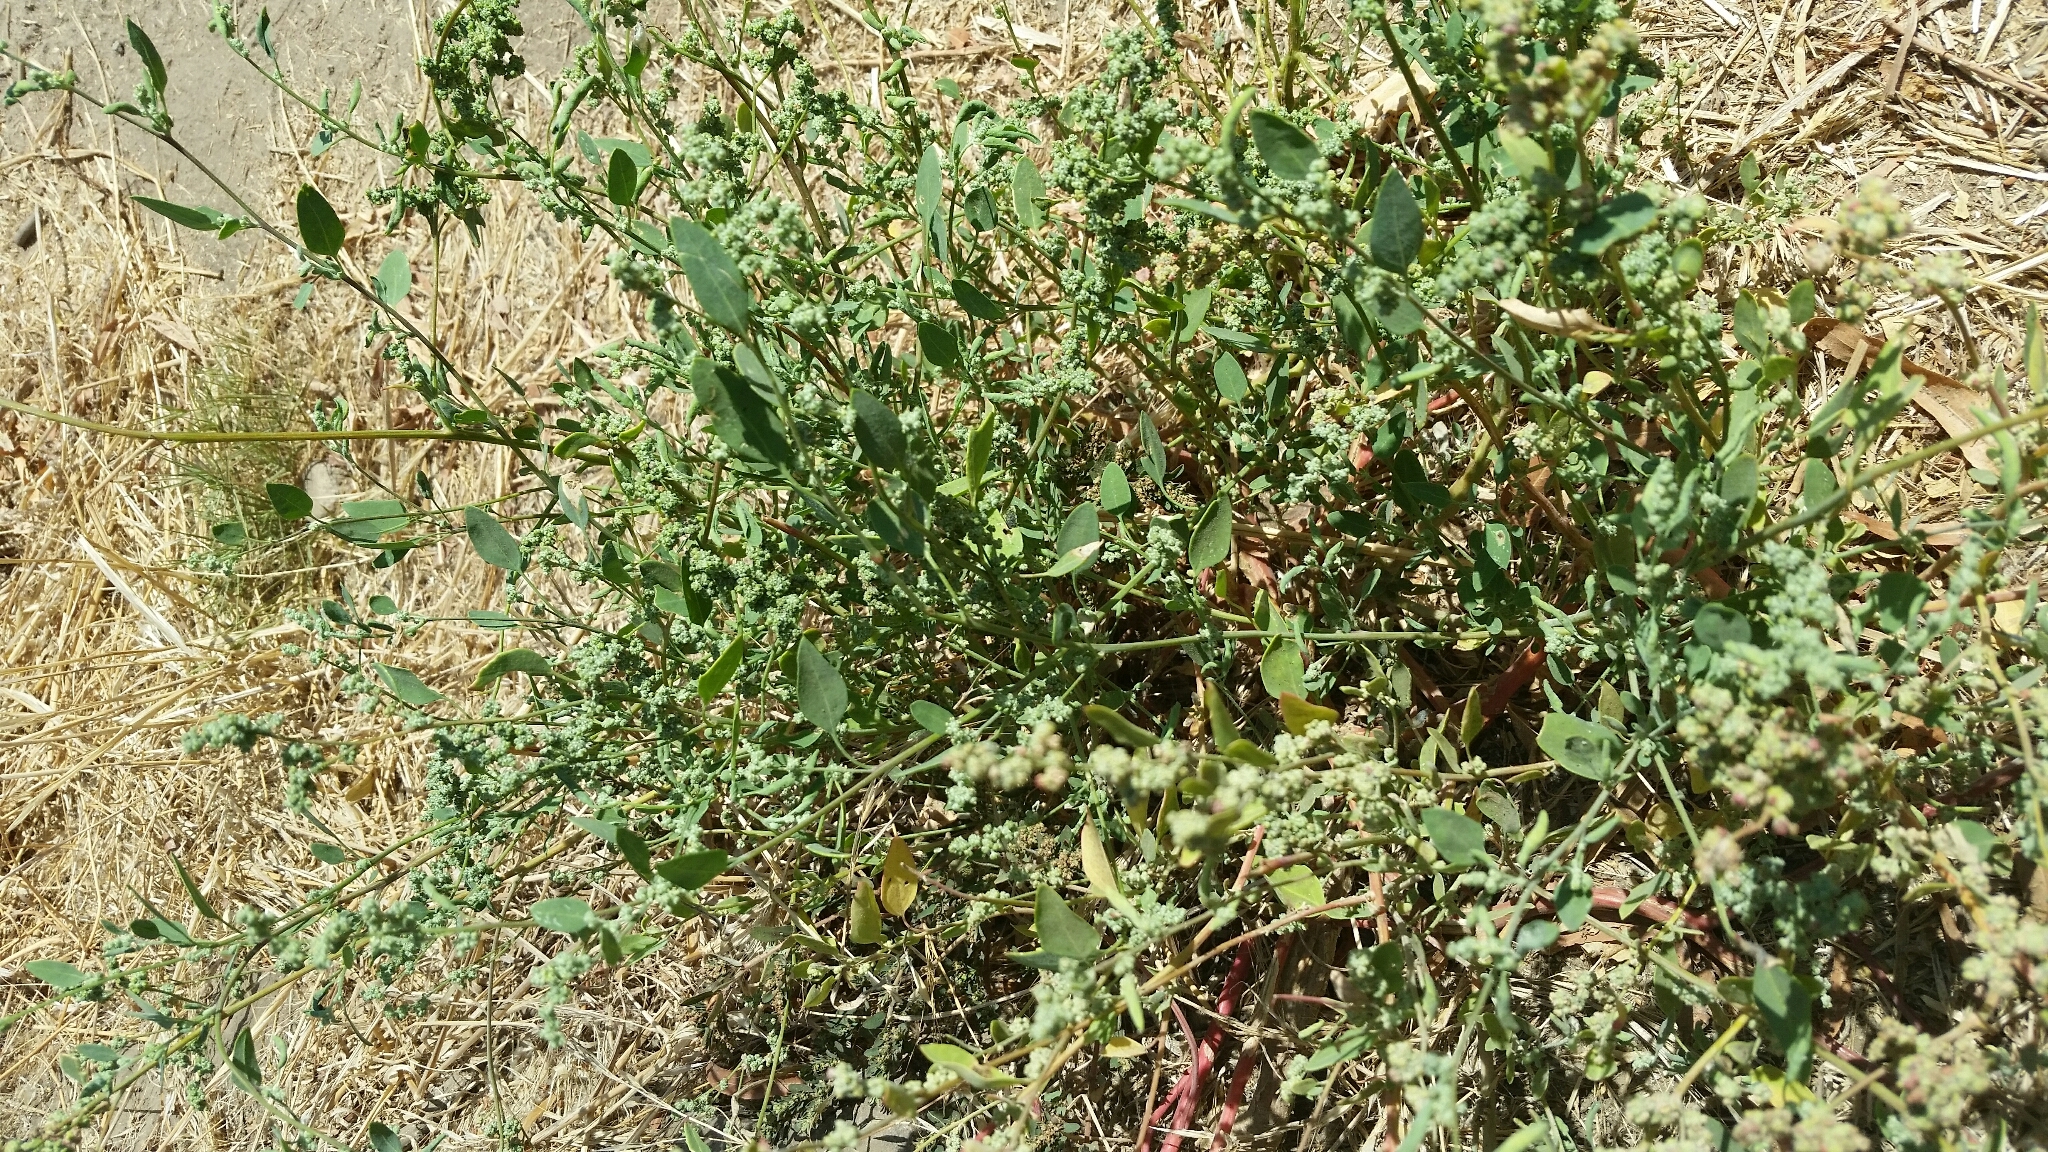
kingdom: Plantae
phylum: Tracheophyta
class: Magnoliopsida
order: Caryophyllales
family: Amaranthaceae
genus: Chenopodium
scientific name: Chenopodium berlandieri
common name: Pit-seed goosefoot
